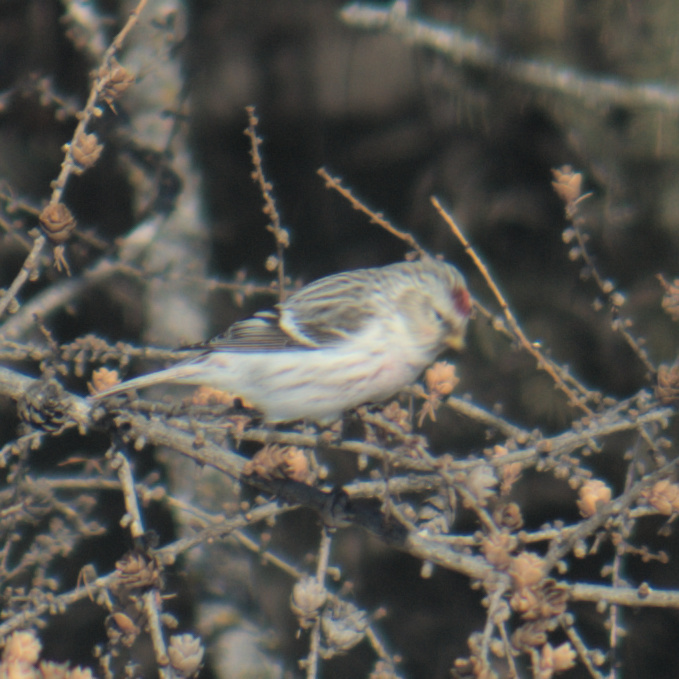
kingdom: Animalia
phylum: Chordata
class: Aves
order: Passeriformes
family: Fringillidae
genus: Acanthis
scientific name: Acanthis flammea
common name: Common redpoll
